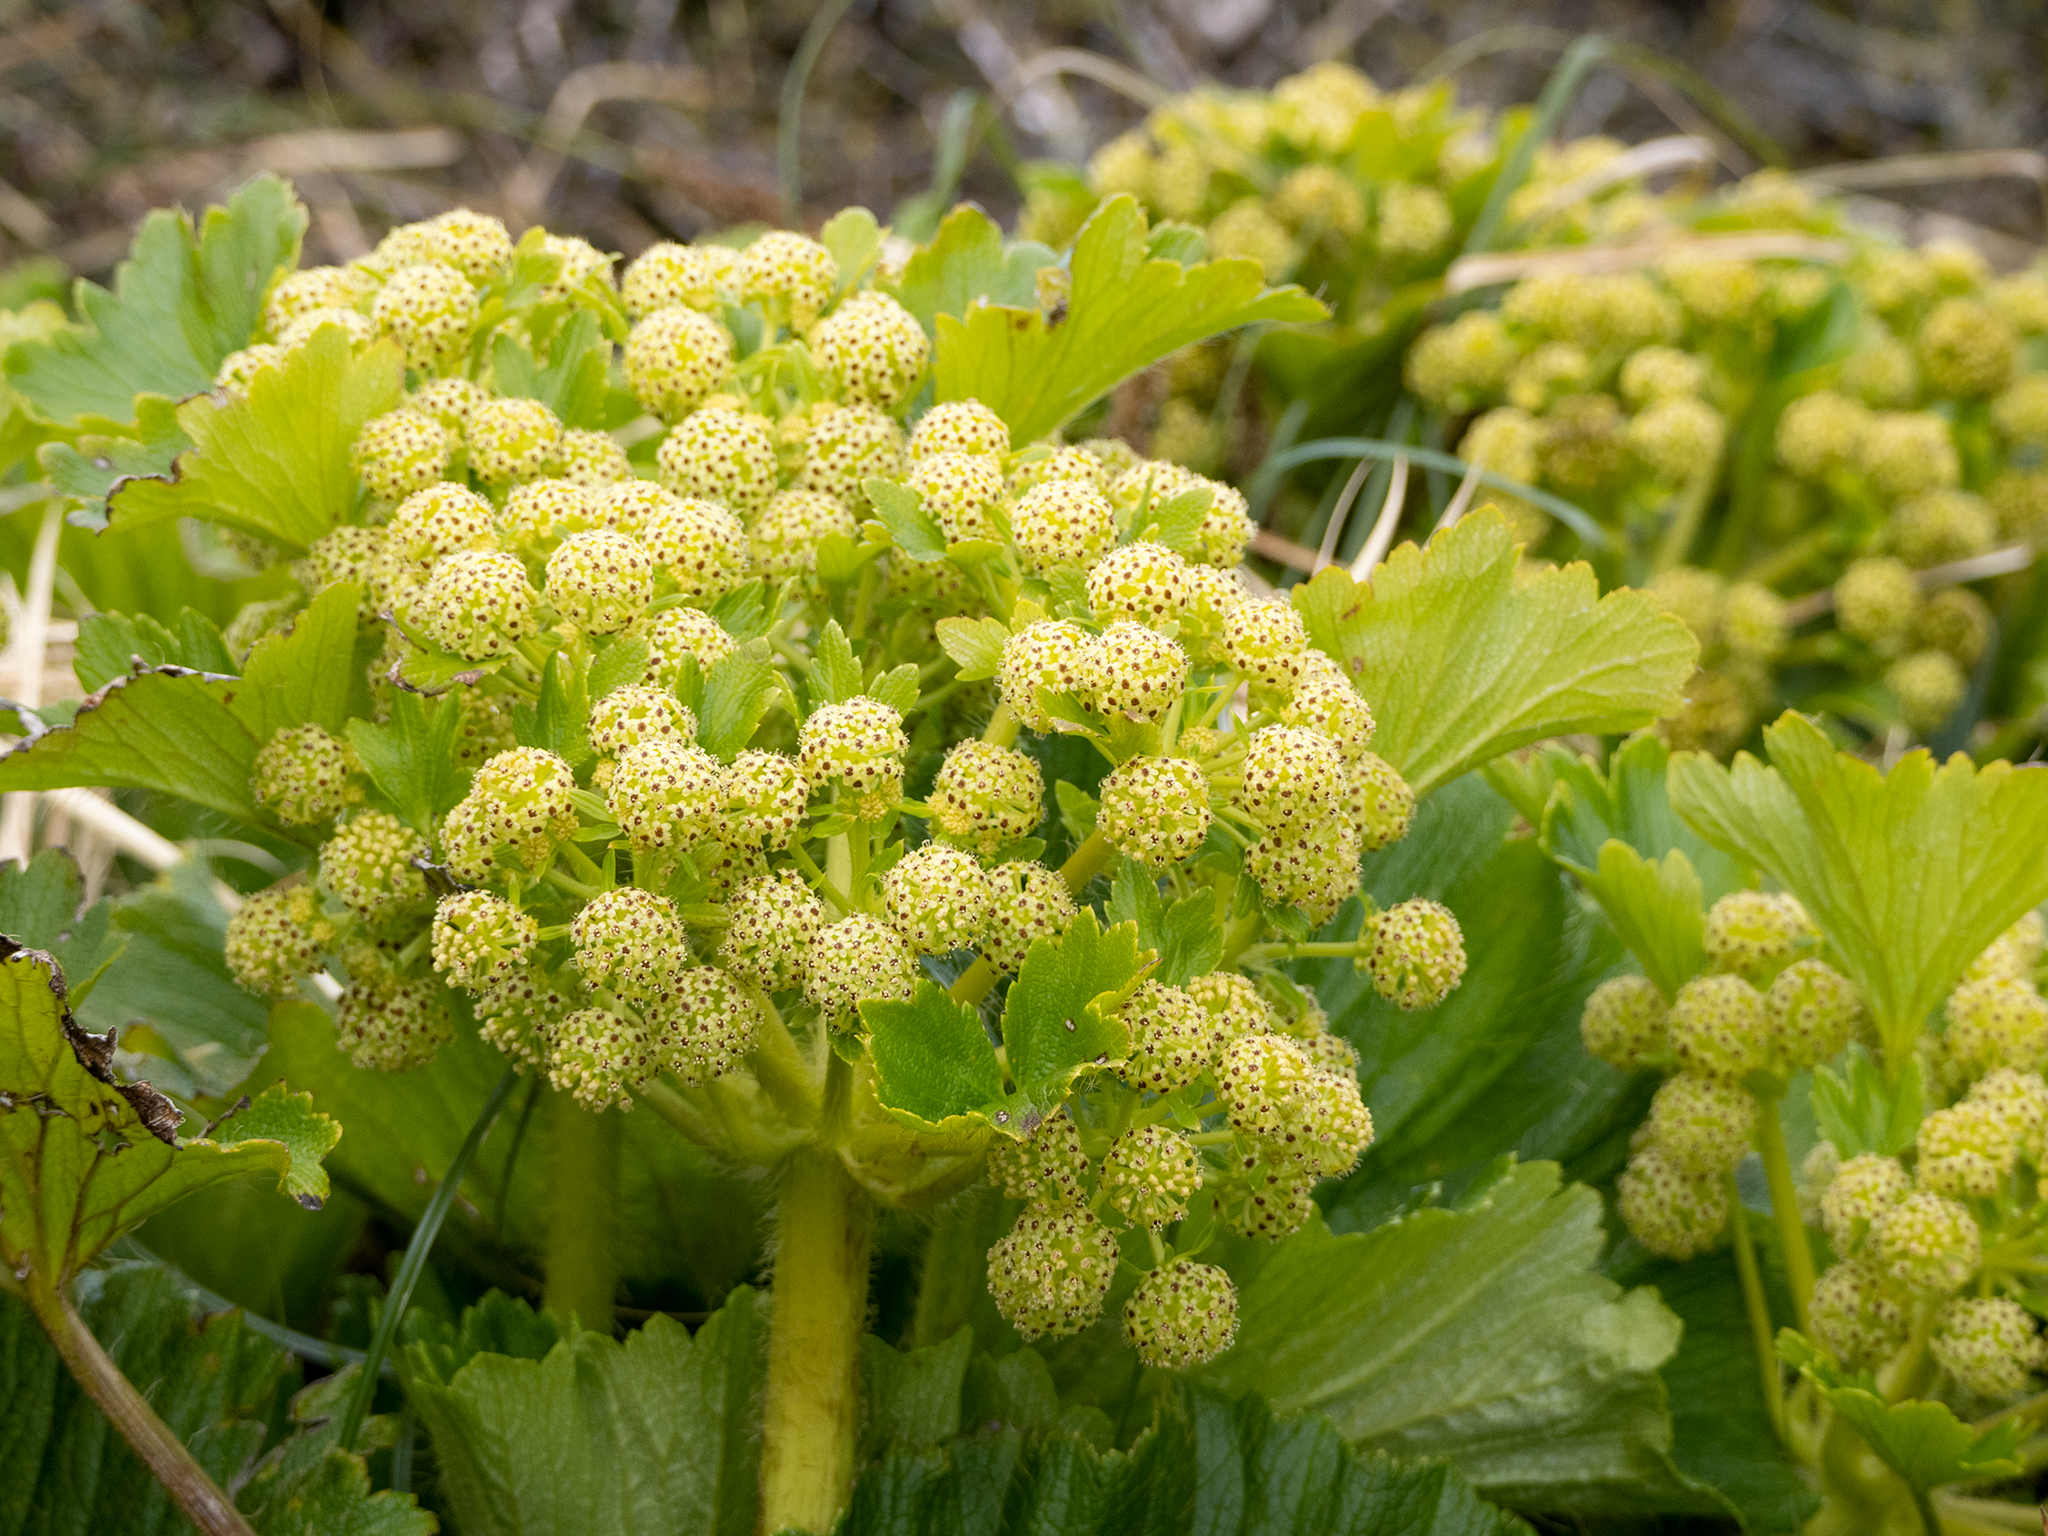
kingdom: Plantae
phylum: Tracheophyta
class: Magnoliopsida
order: Apiales
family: Apiaceae
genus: Azorella
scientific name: Azorella polaris
